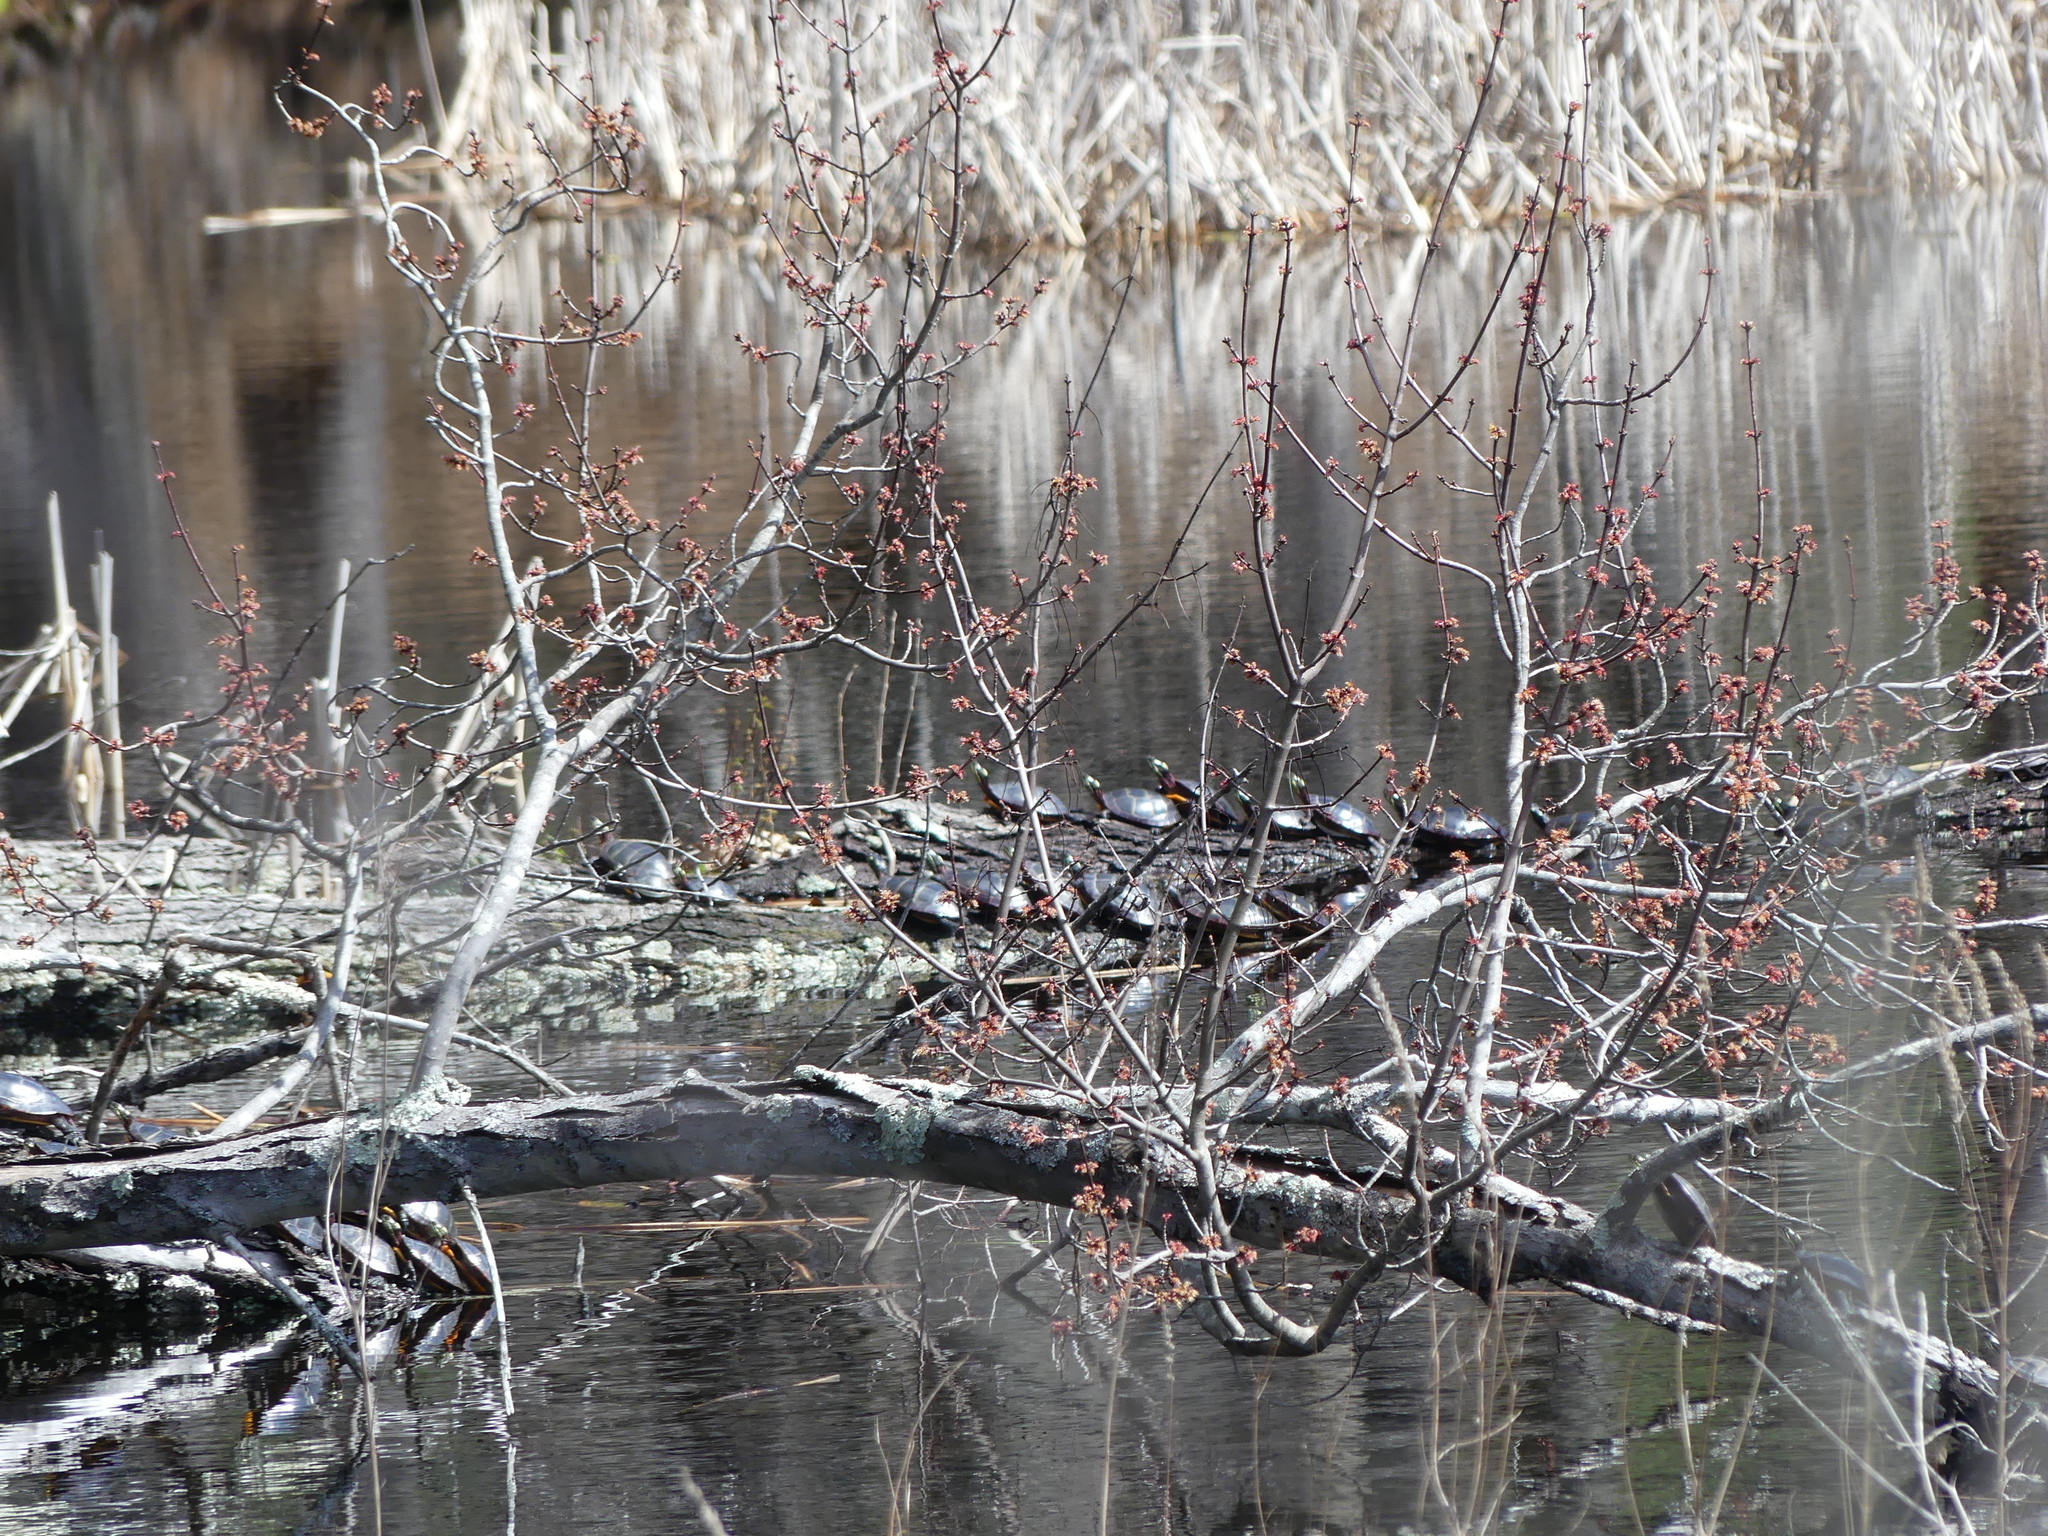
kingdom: Animalia
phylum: Chordata
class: Testudines
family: Emydidae
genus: Chrysemys
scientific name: Chrysemys picta
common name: Painted turtle
